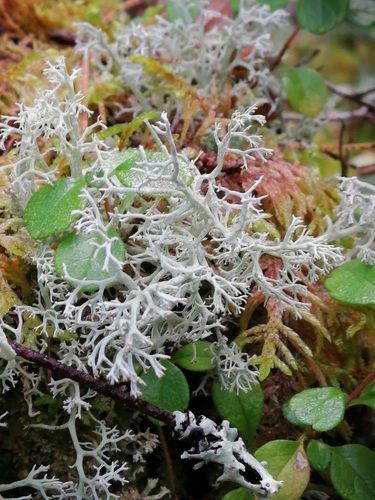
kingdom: Fungi
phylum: Ascomycota
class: Lecanoromycetes
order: Lecanorales
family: Cladoniaceae
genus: Cladonia
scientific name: Cladonia rangiferina
